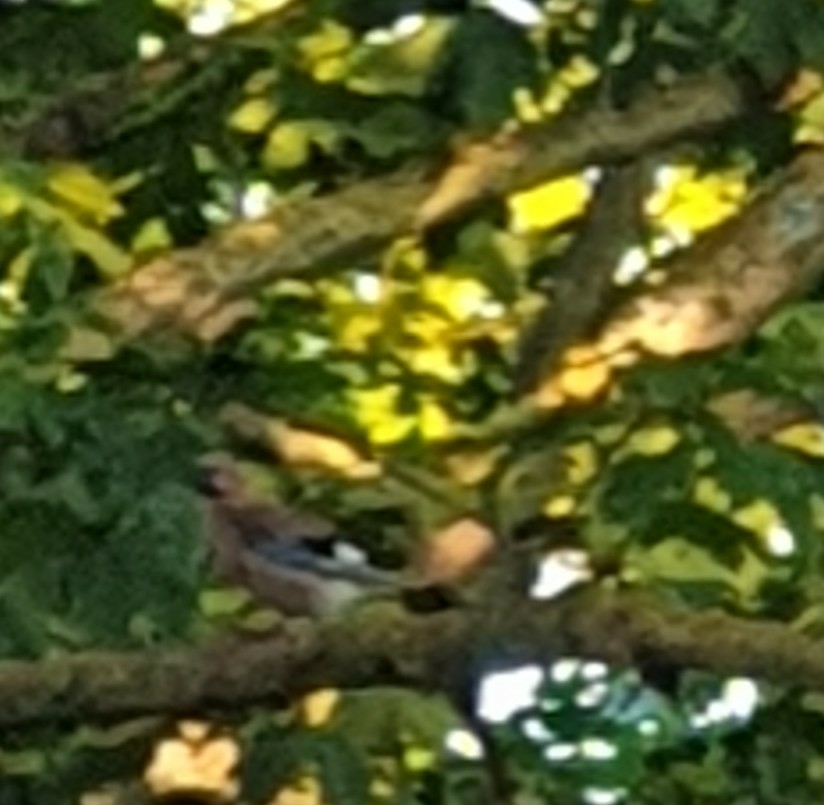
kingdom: Animalia
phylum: Chordata
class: Aves
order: Passeriformes
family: Corvidae
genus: Garrulus
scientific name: Garrulus glandarius
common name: Eurasian jay
